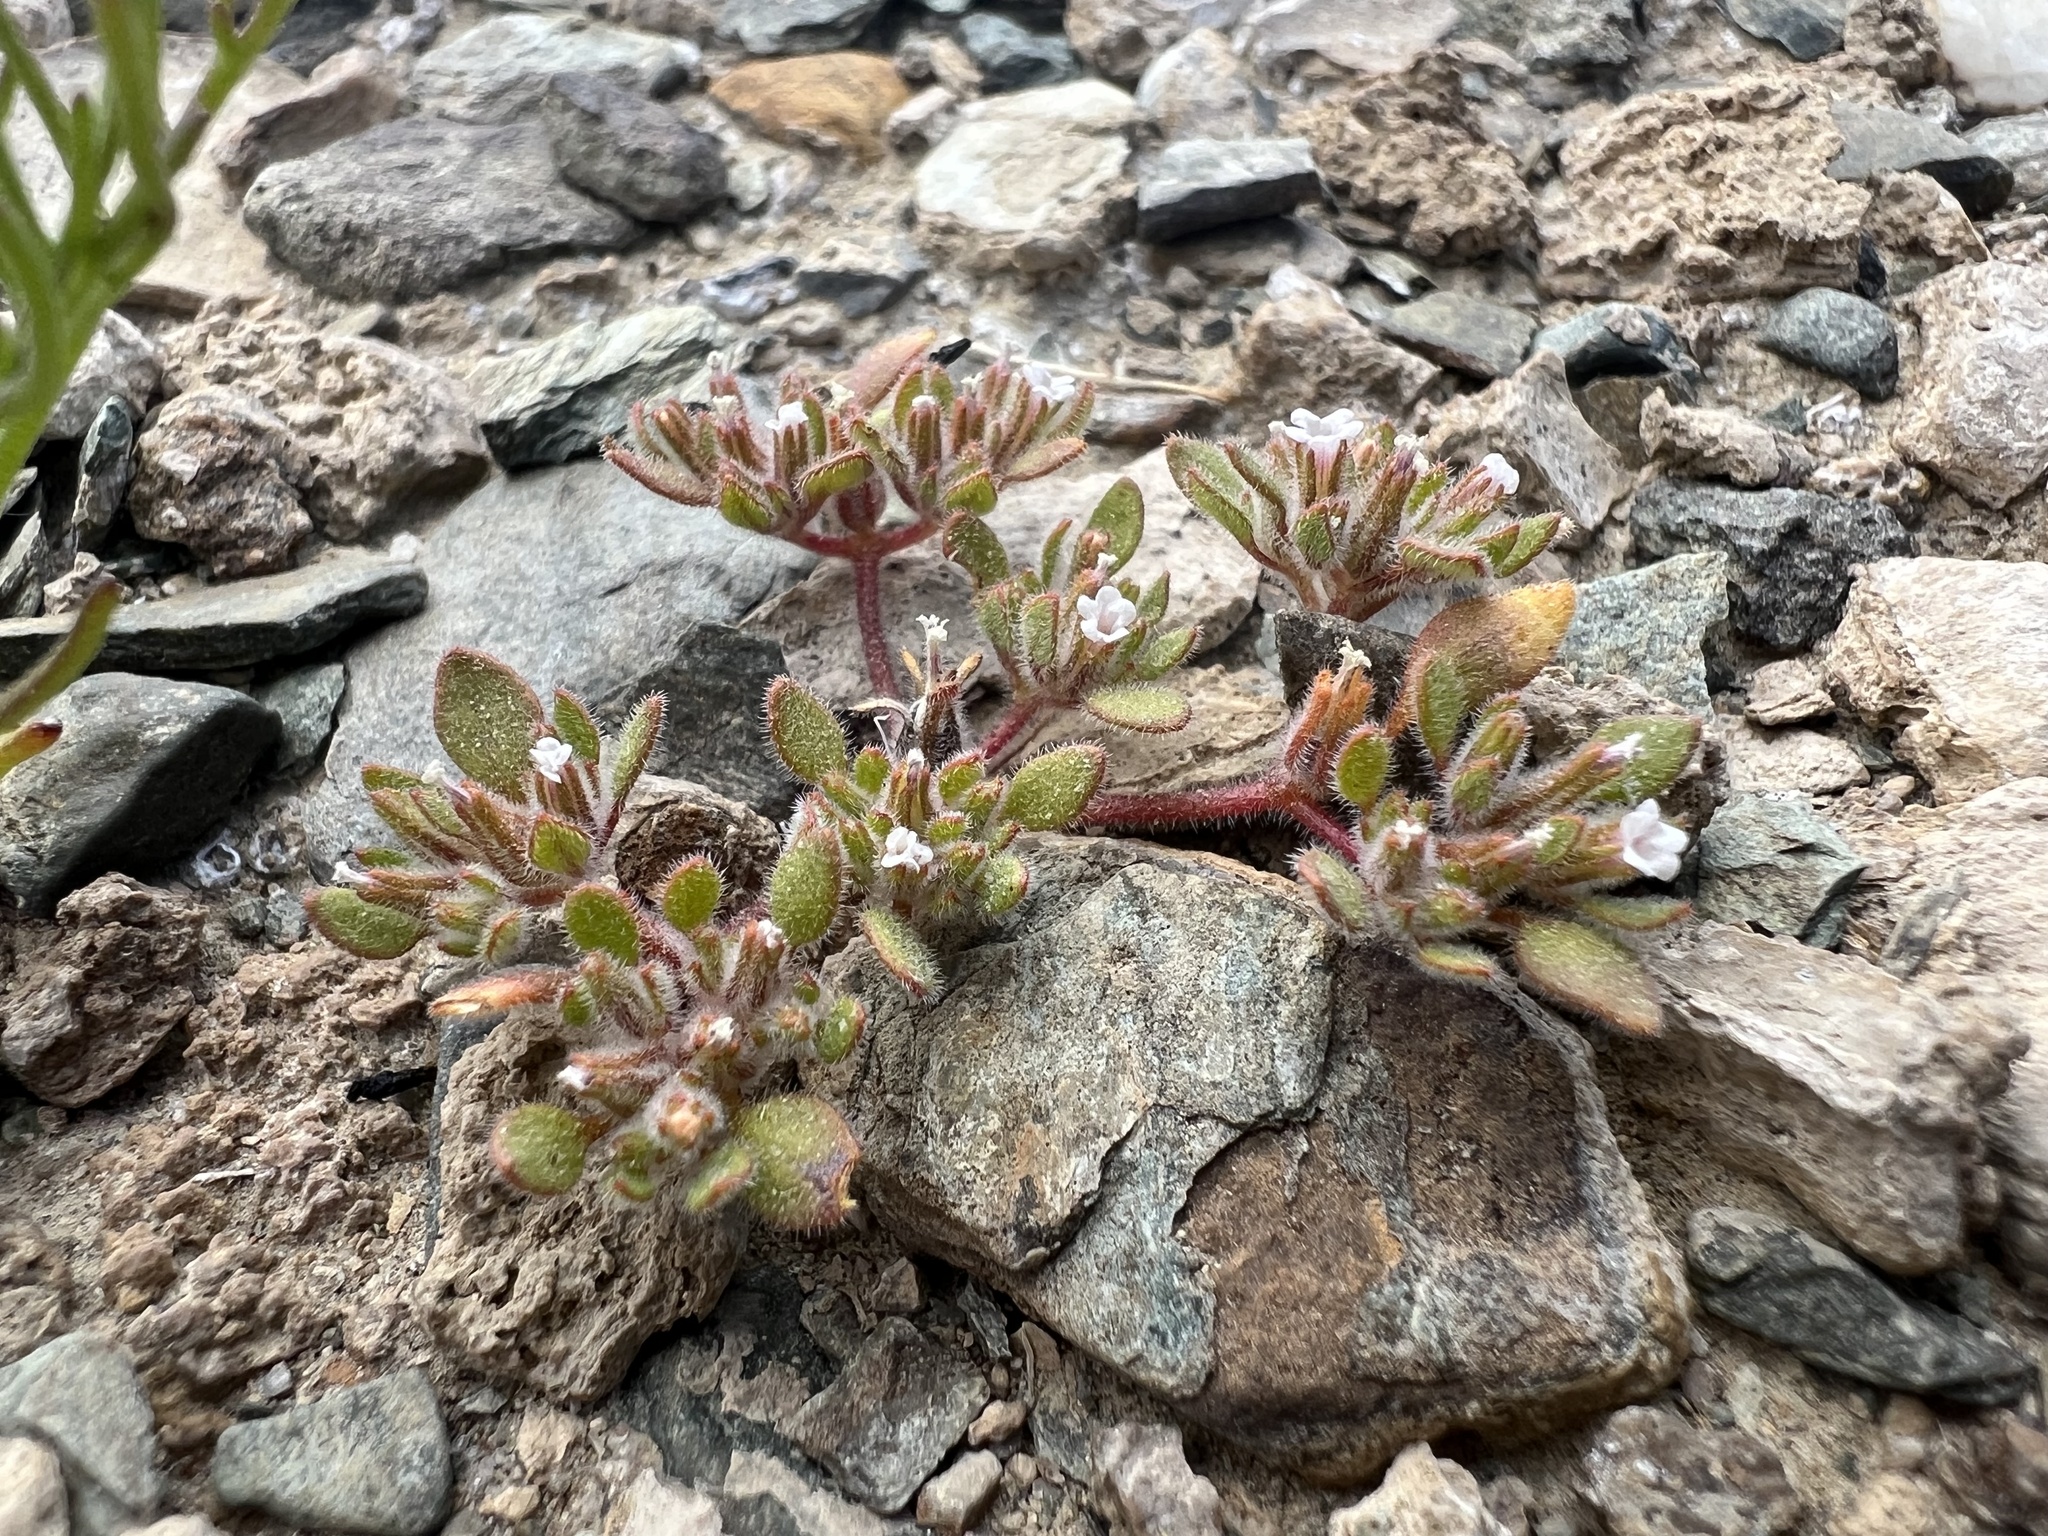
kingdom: Plantae
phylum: Tracheophyta
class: Magnoliopsida
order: Boraginales
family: Namaceae
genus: Nama
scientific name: Nama pusilla
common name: Eggleaf nama
